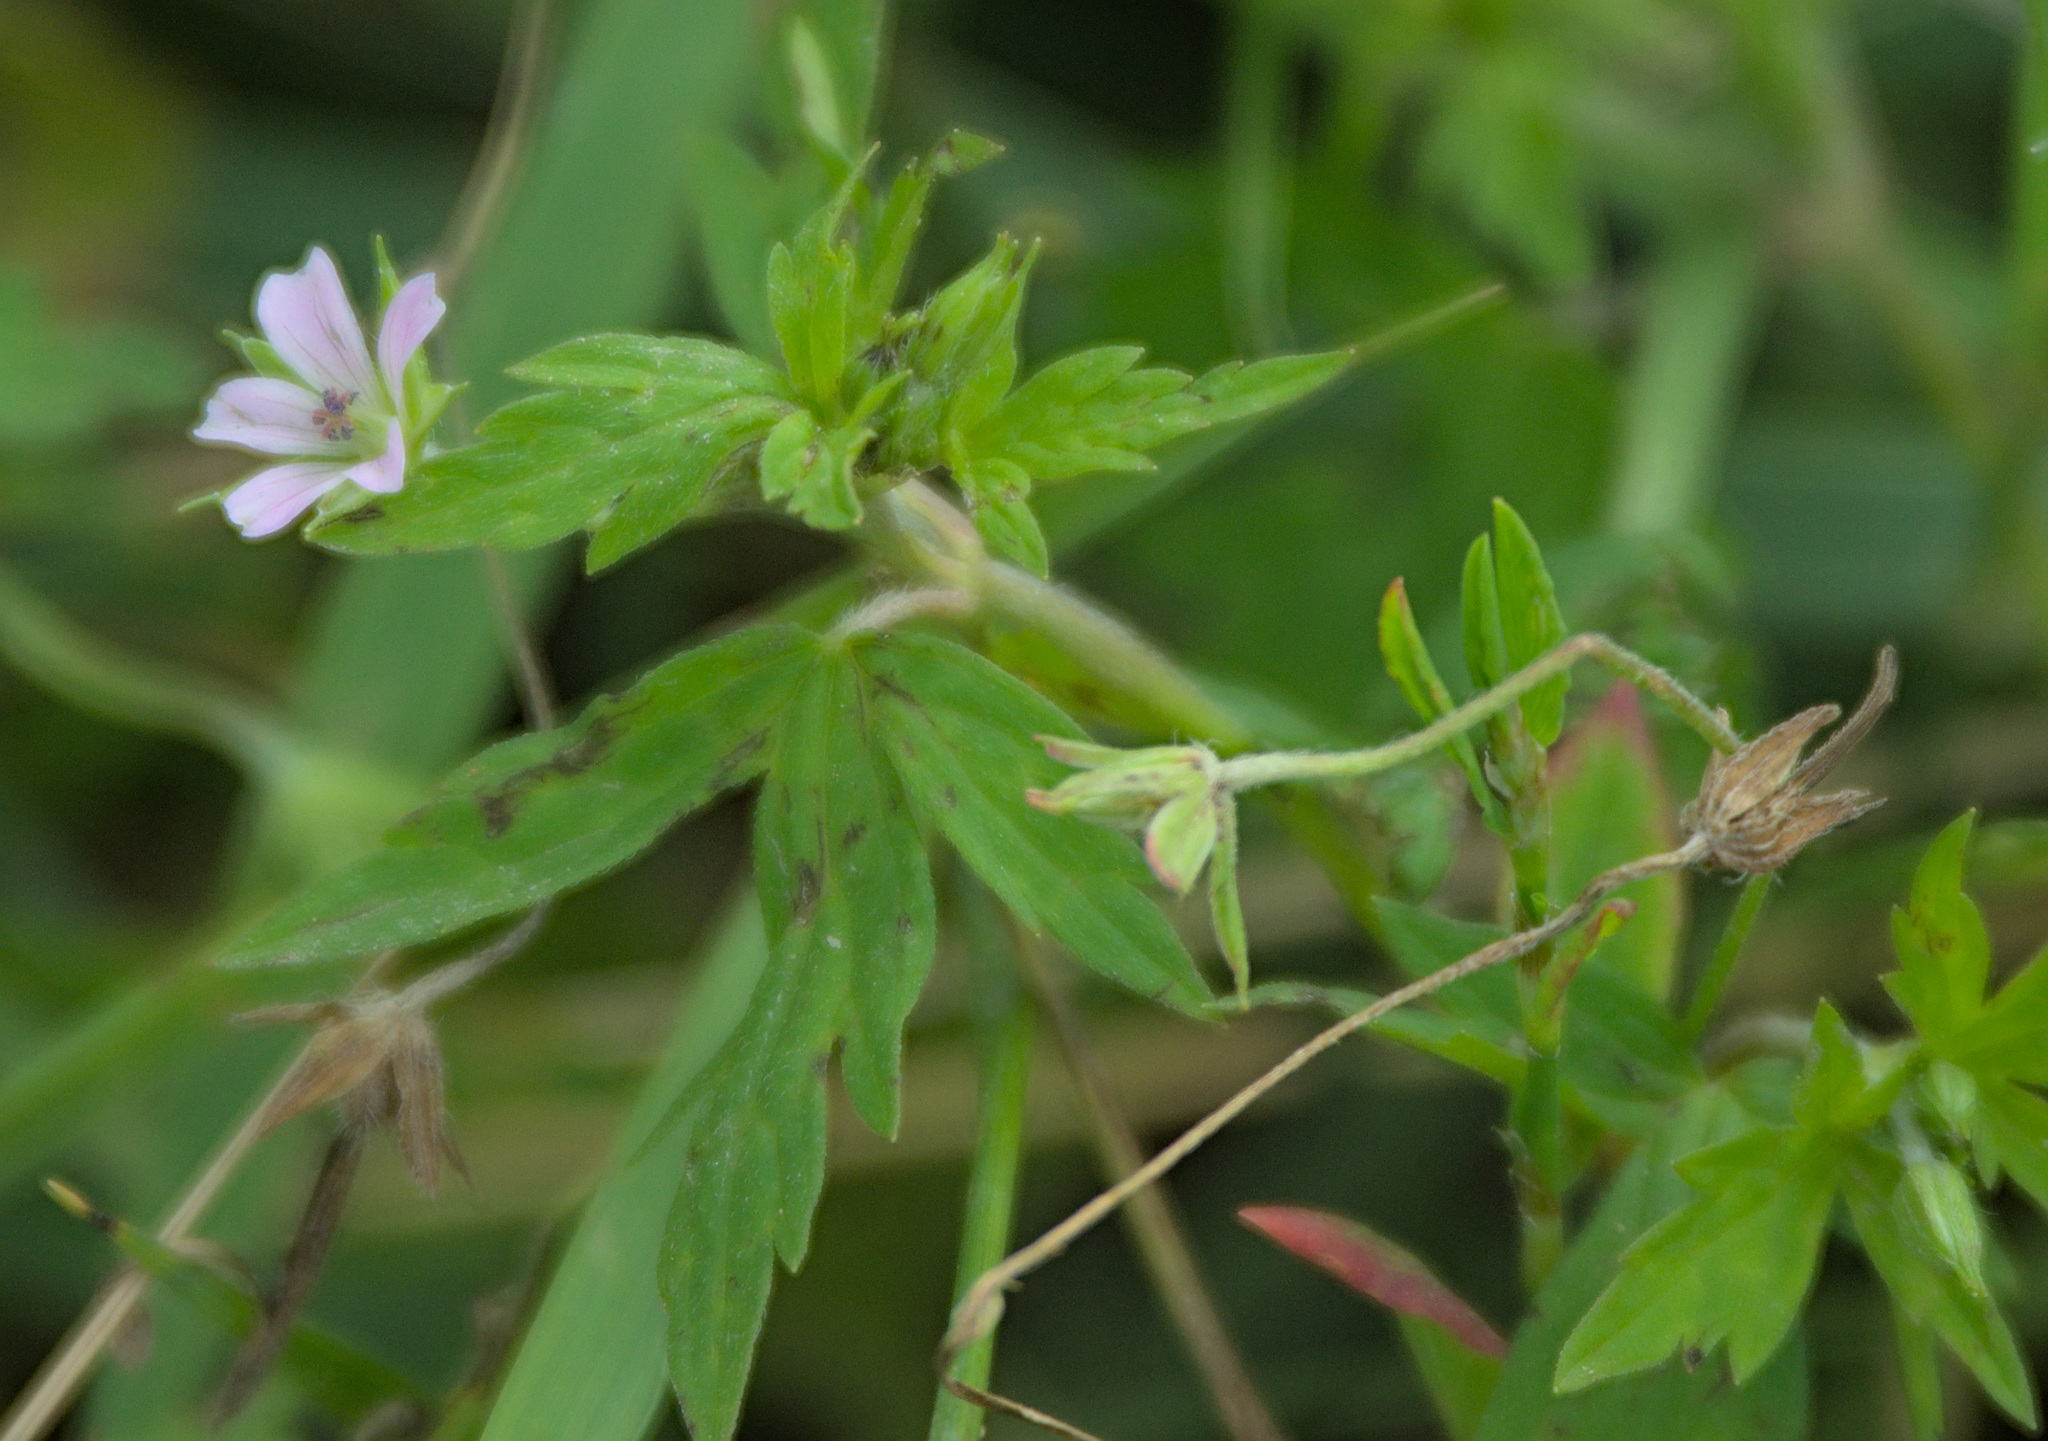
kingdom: Plantae
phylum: Tracheophyta
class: Magnoliopsida
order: Geraniales
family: Geraniaceae
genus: Geranium
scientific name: Geranium sibiricum
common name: Siberian crane's-bill
